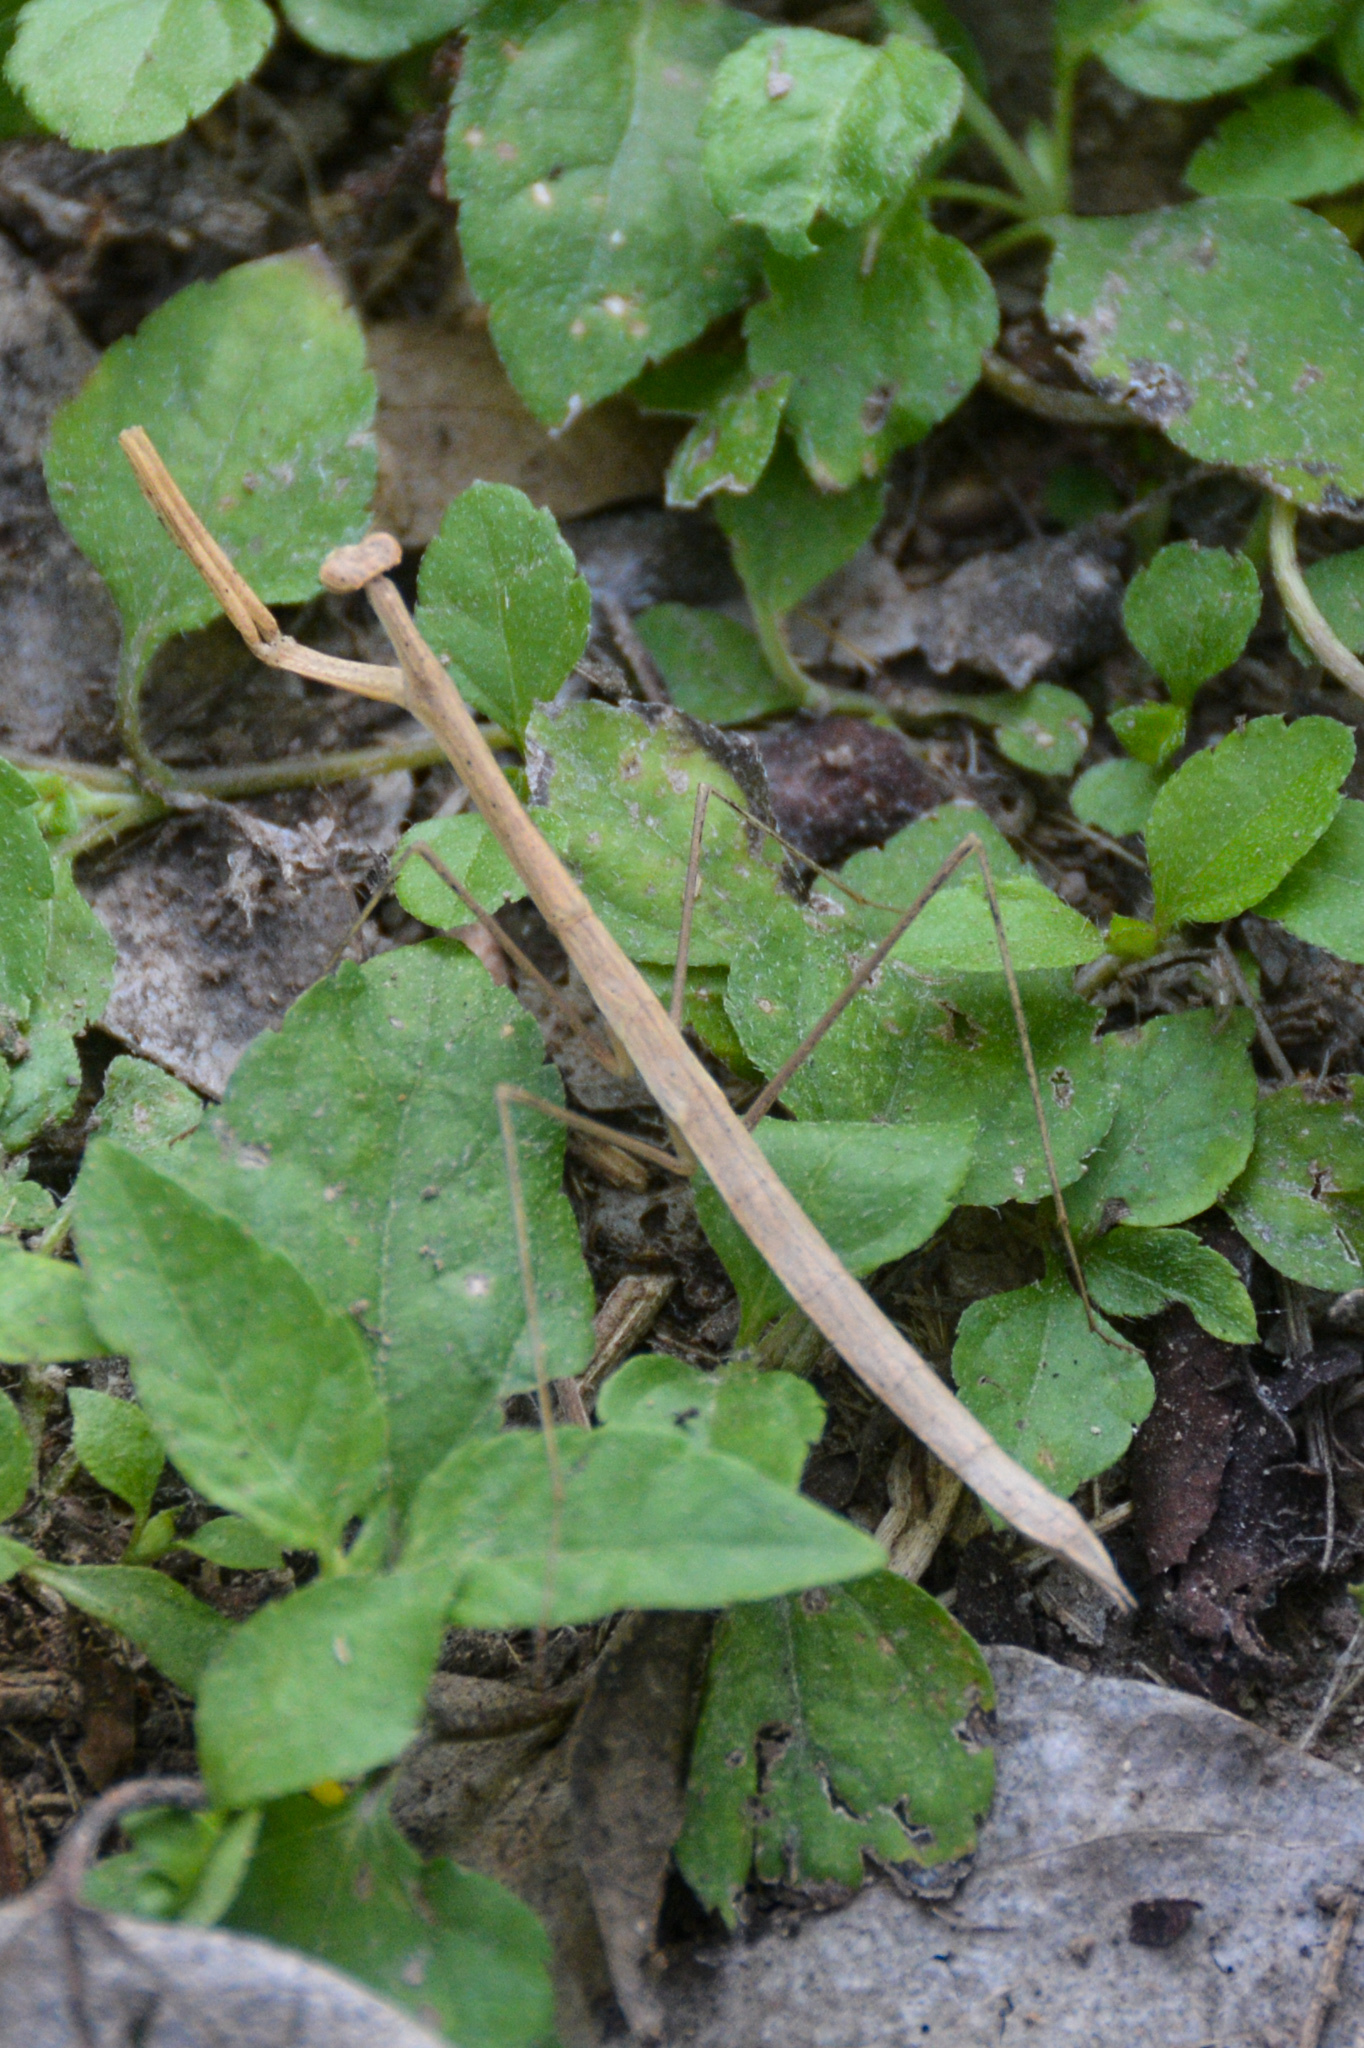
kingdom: Animalia
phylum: Arthropoda
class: Insecta
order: Mantodea
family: Thespidae
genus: Bistanta
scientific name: Bistanta campestris
